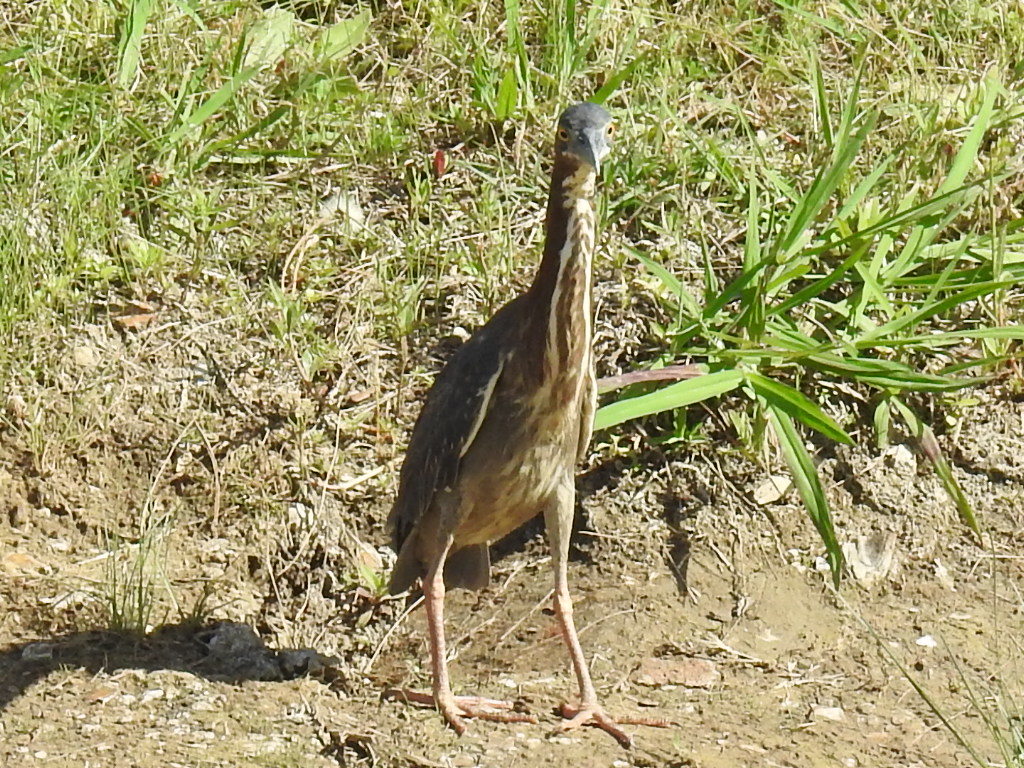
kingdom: Animalia
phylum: Chordata
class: Aves
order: Pelecaniformes
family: Ardeidae
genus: Butorides
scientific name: Butorides virescens
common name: Green heron
